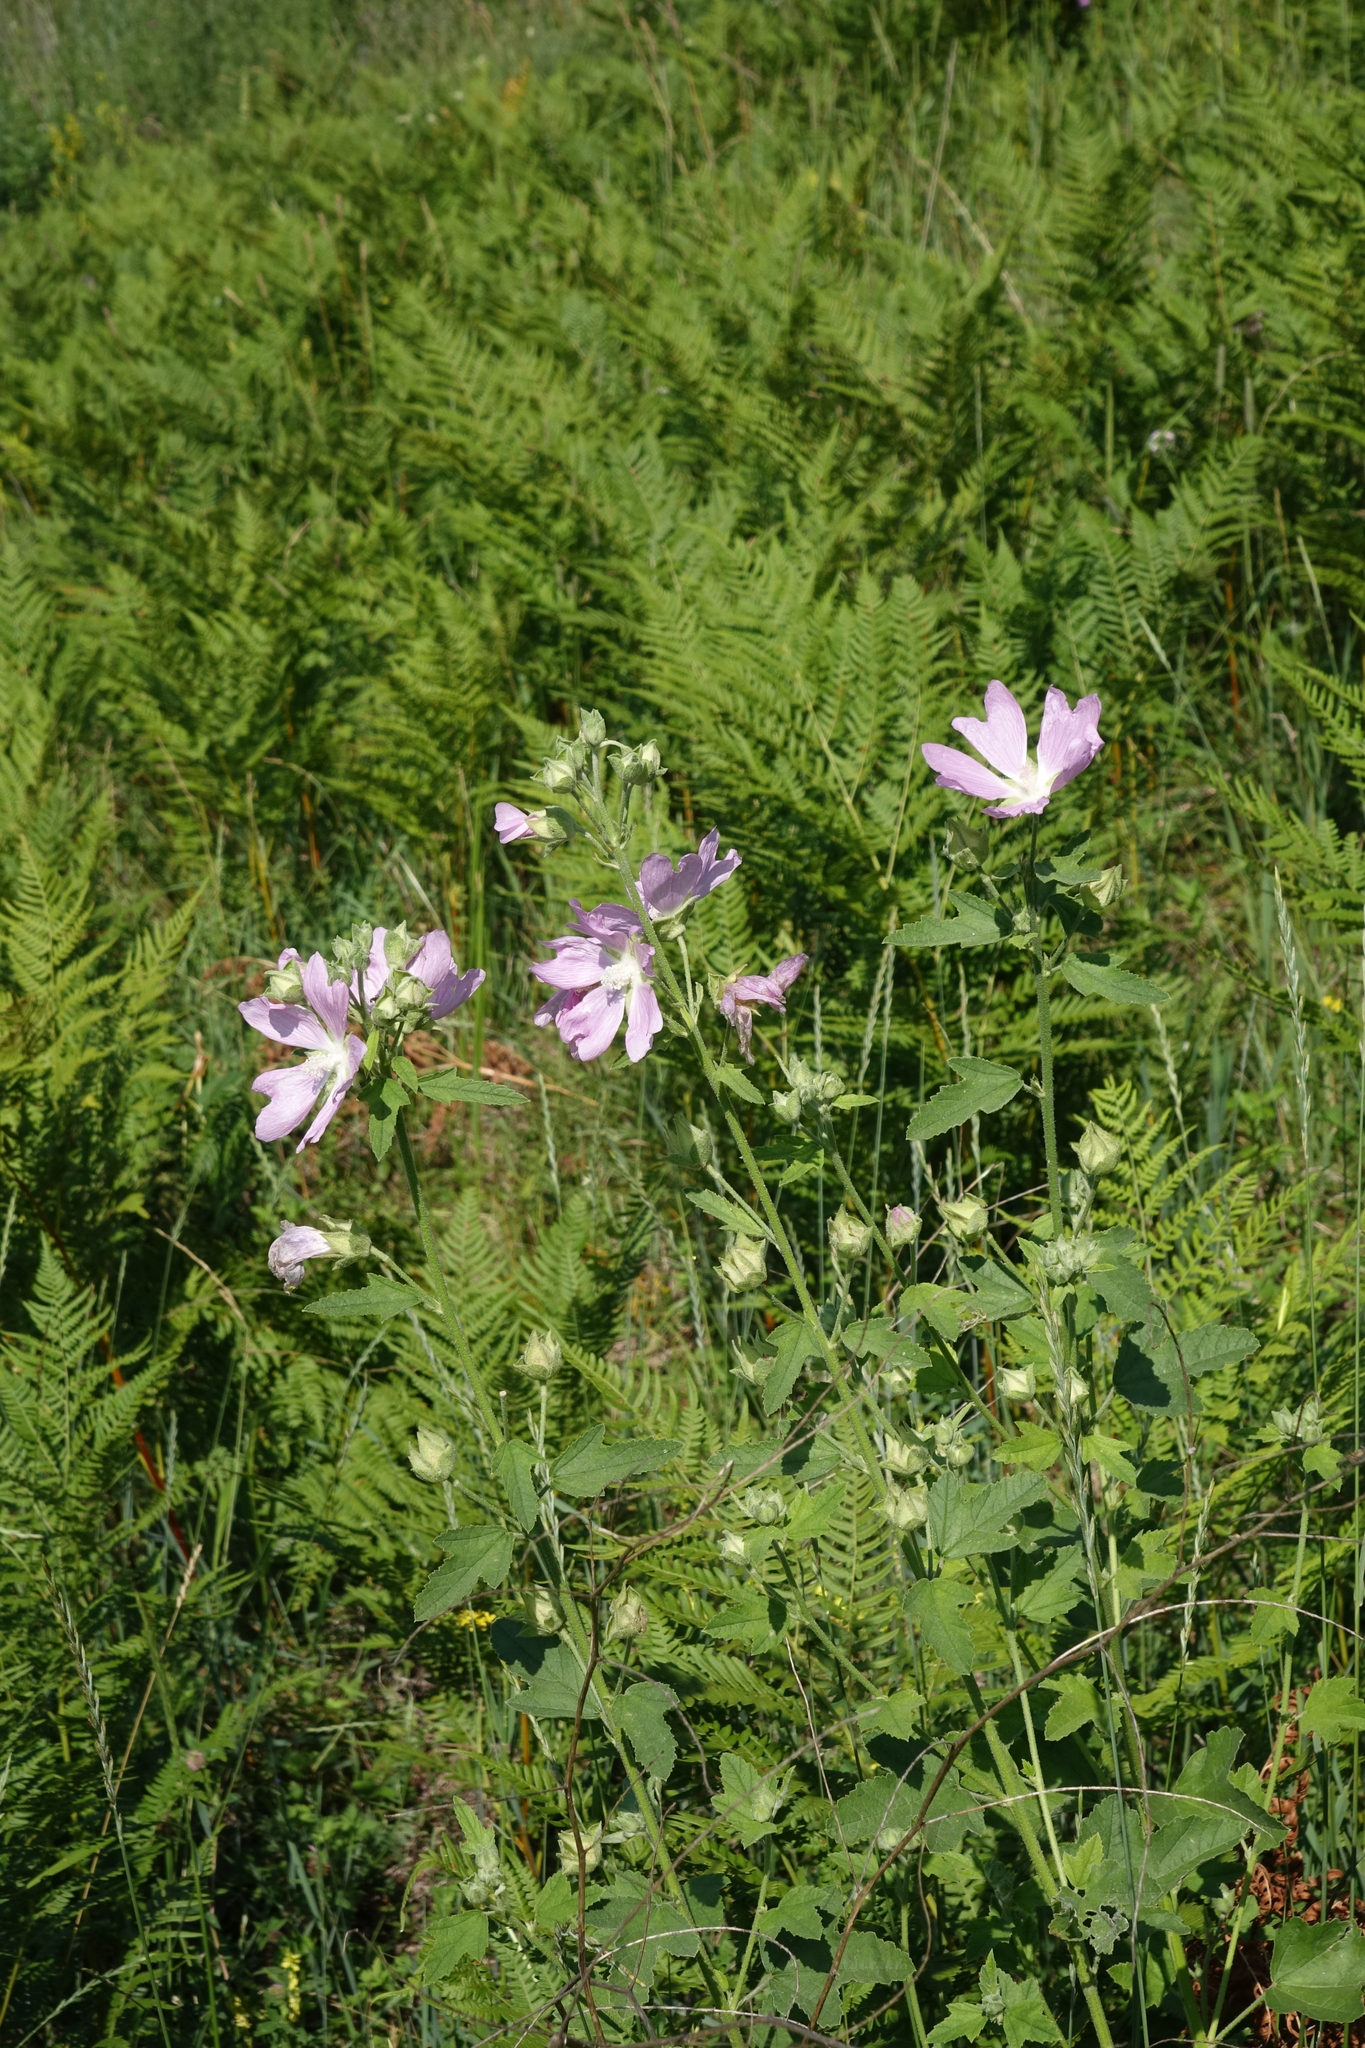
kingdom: Plantae
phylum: Tracheophyta
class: Polypodiopsida
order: Polypodiales
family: Dennstaedtiaceae
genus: Pteridium
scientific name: Pteridium aquilinum
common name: Bracken
